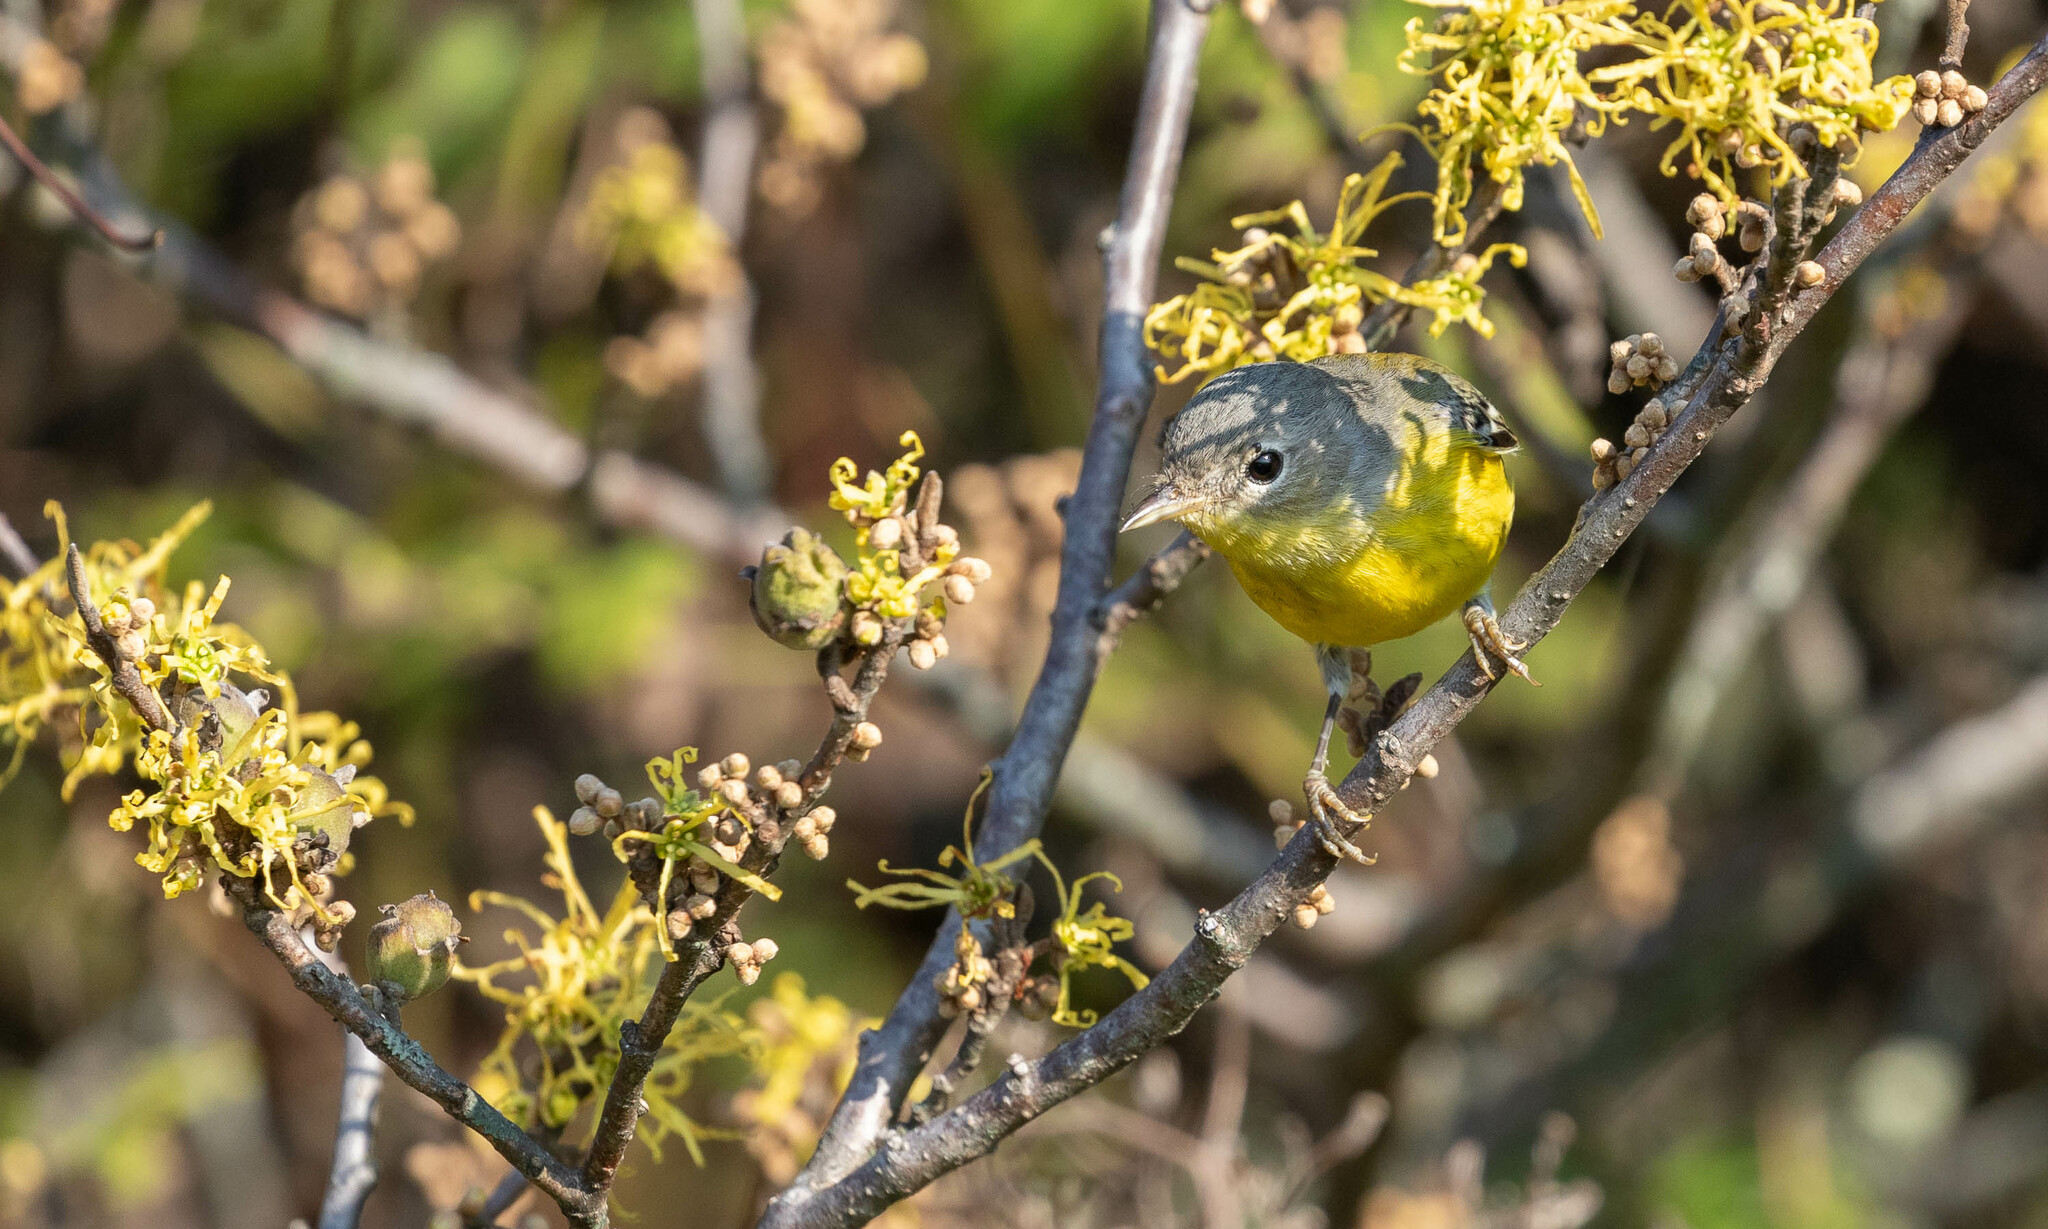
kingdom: Animalia
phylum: Chordata
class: Aves
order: Passeriformes
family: Parulidae
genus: Setophaga
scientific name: Setophaga magnolia
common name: Magnolia warbler
